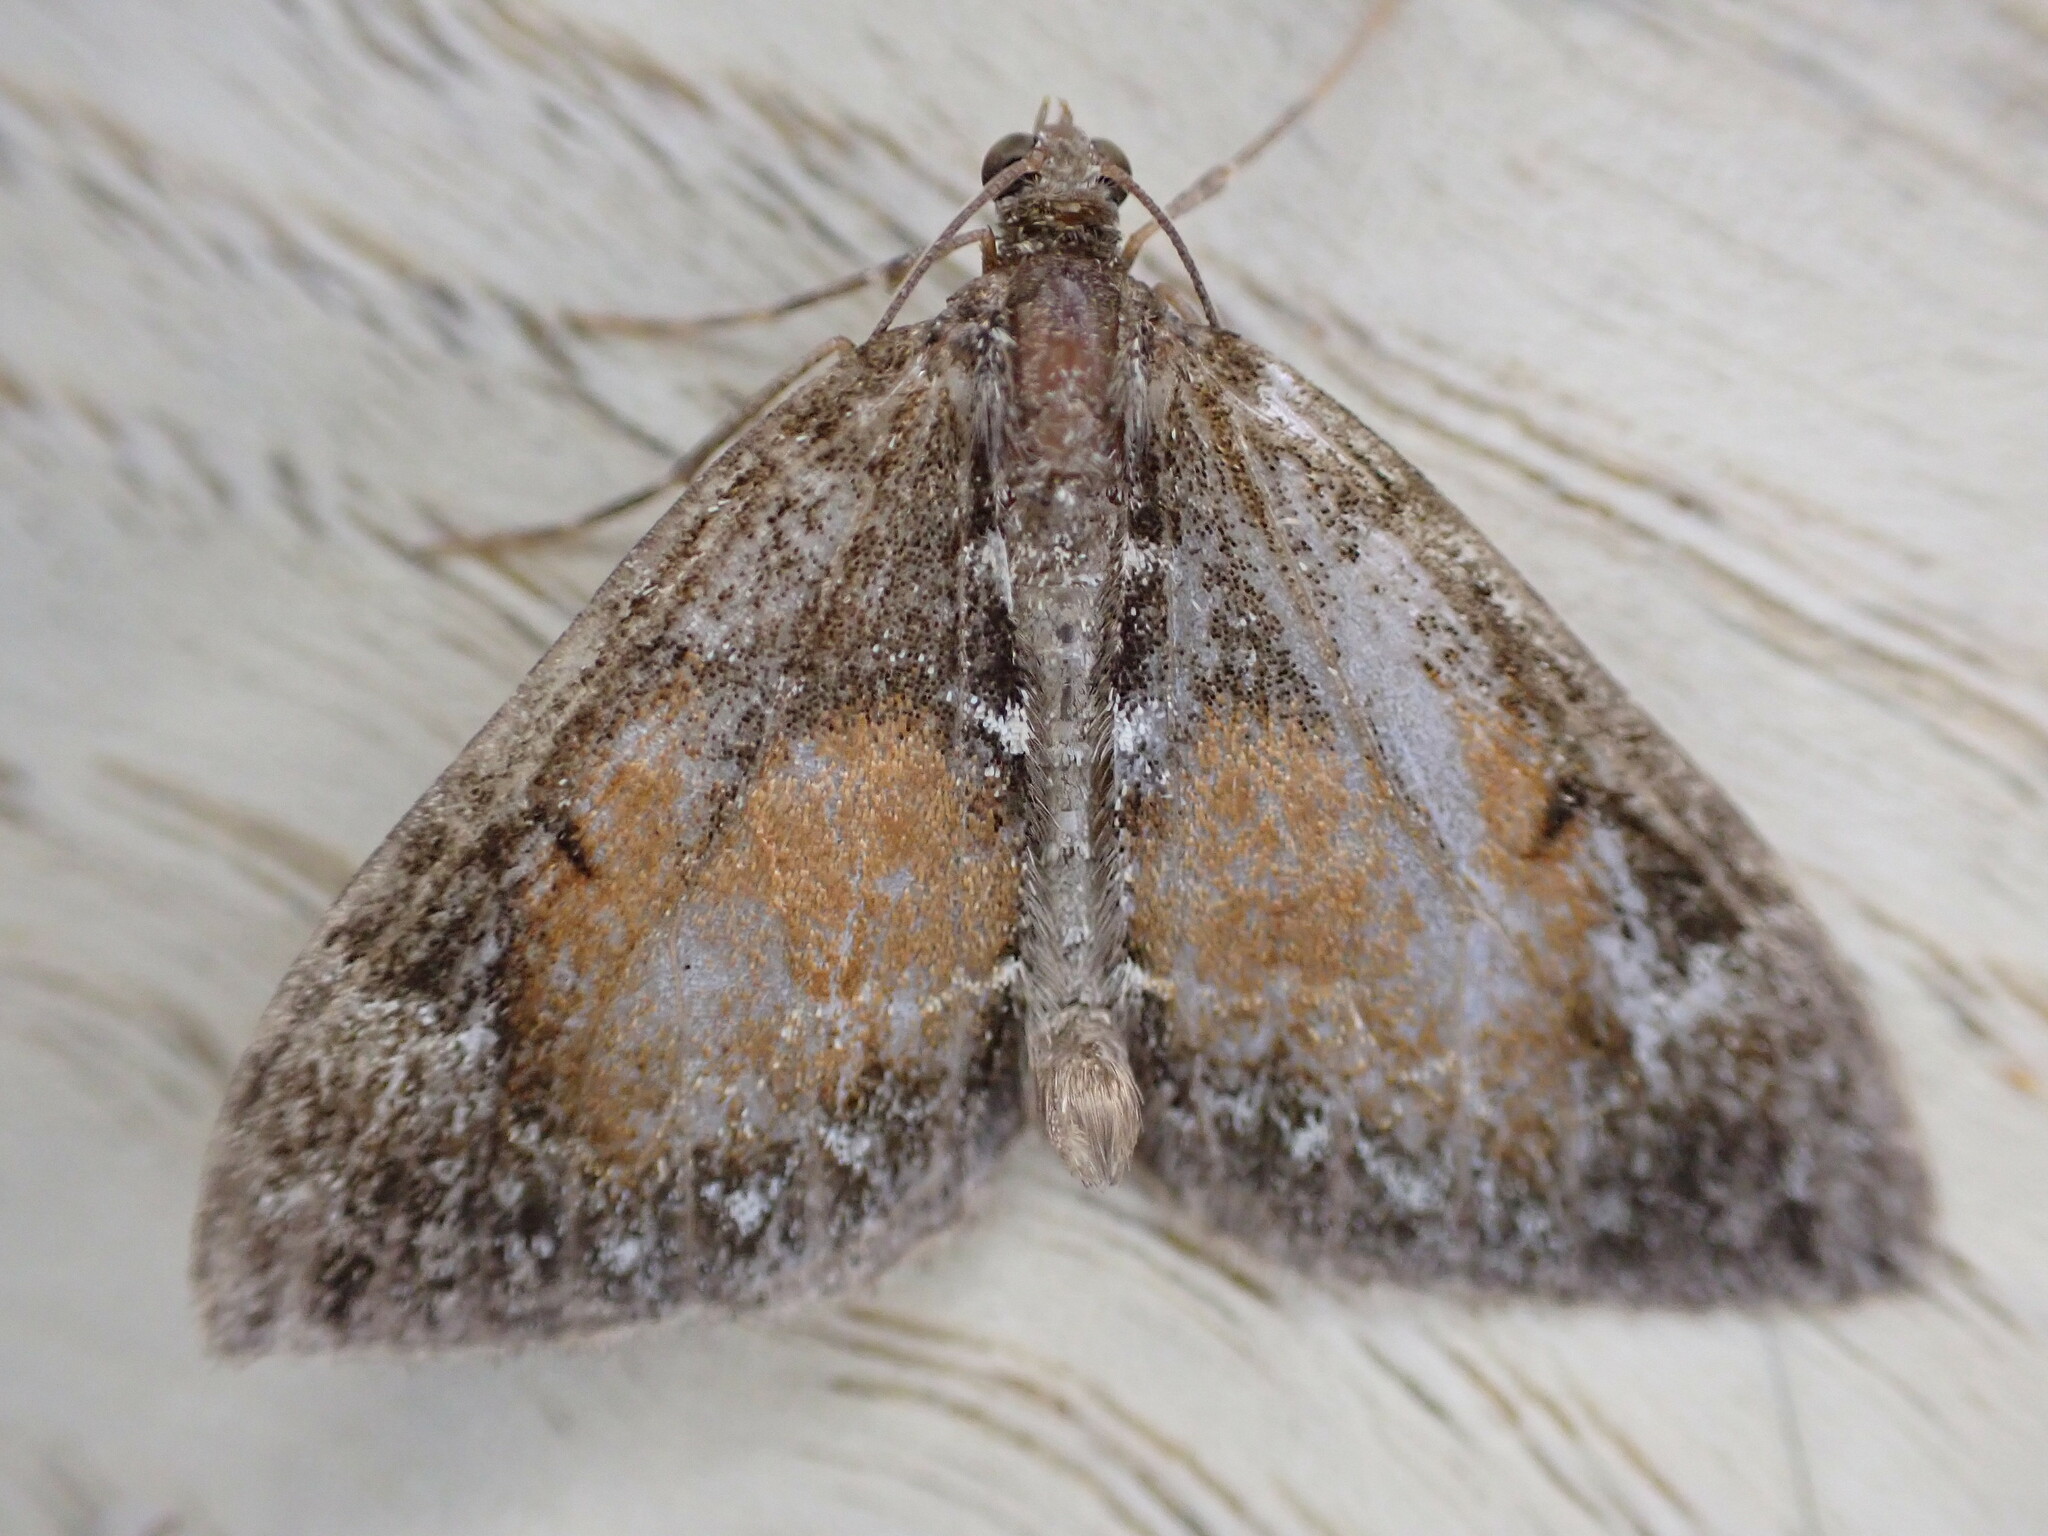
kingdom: Animalia
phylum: Arthropoda
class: Insecta
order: Lepidoptera
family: Geometridae
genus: Dysstroma
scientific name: Dysstroma truncata
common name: Common marbled carpet
